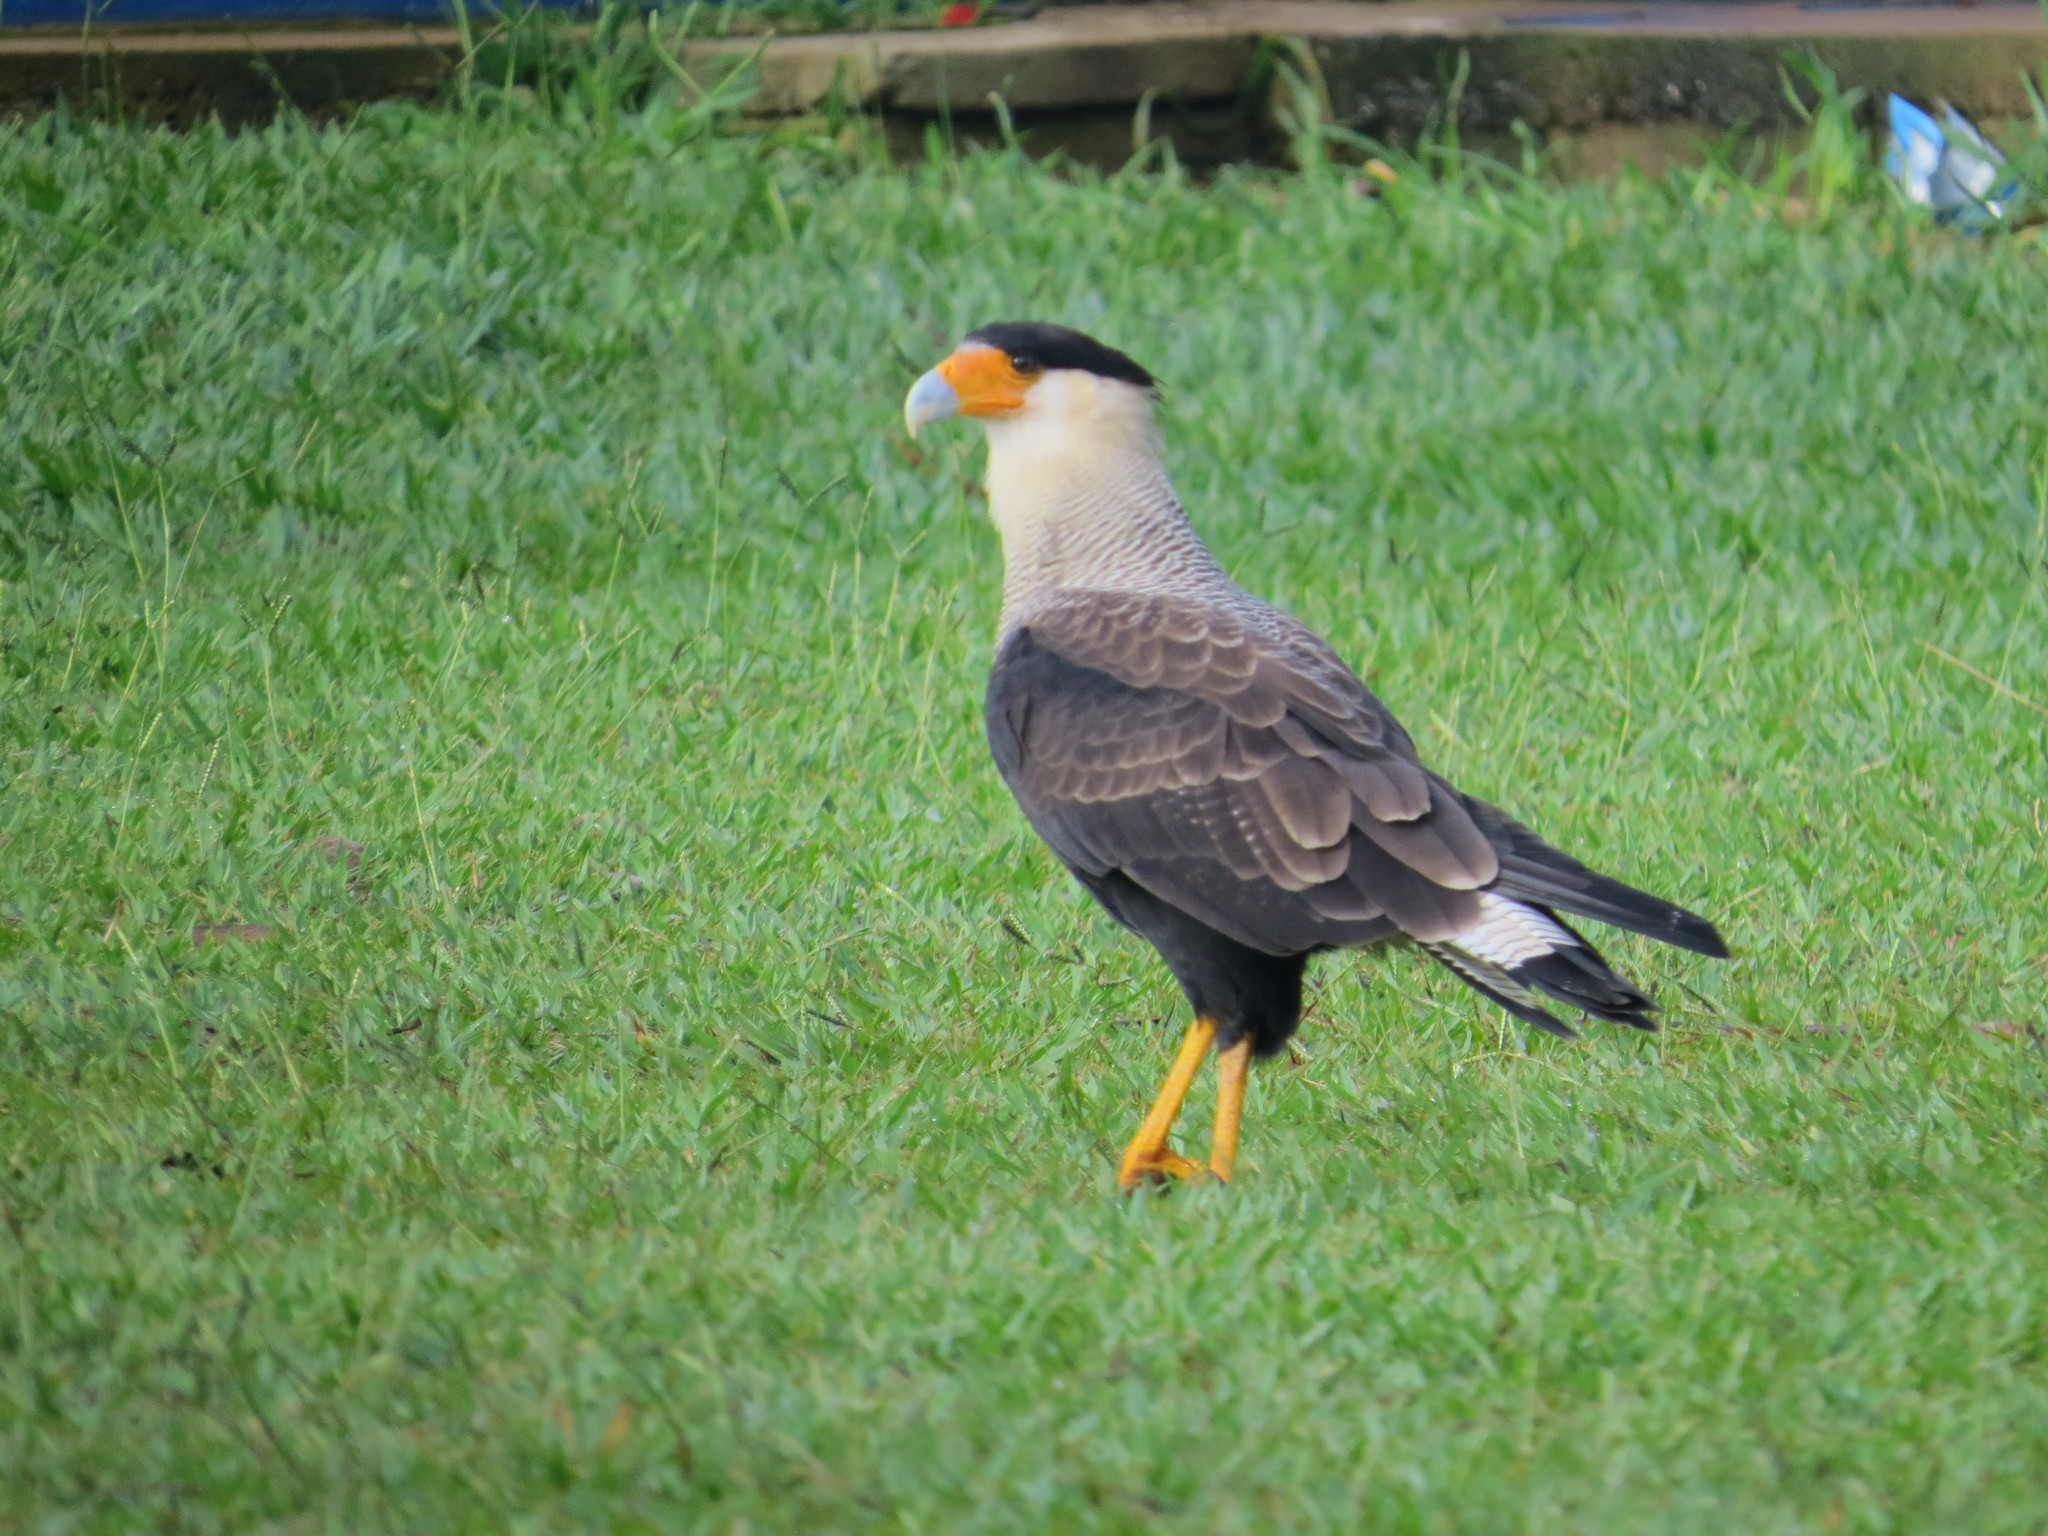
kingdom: Animalia
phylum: Chordata
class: Aves
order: Falconiformes
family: Falconidae
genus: Caracara
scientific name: Caracara plancus
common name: Southern caracara
